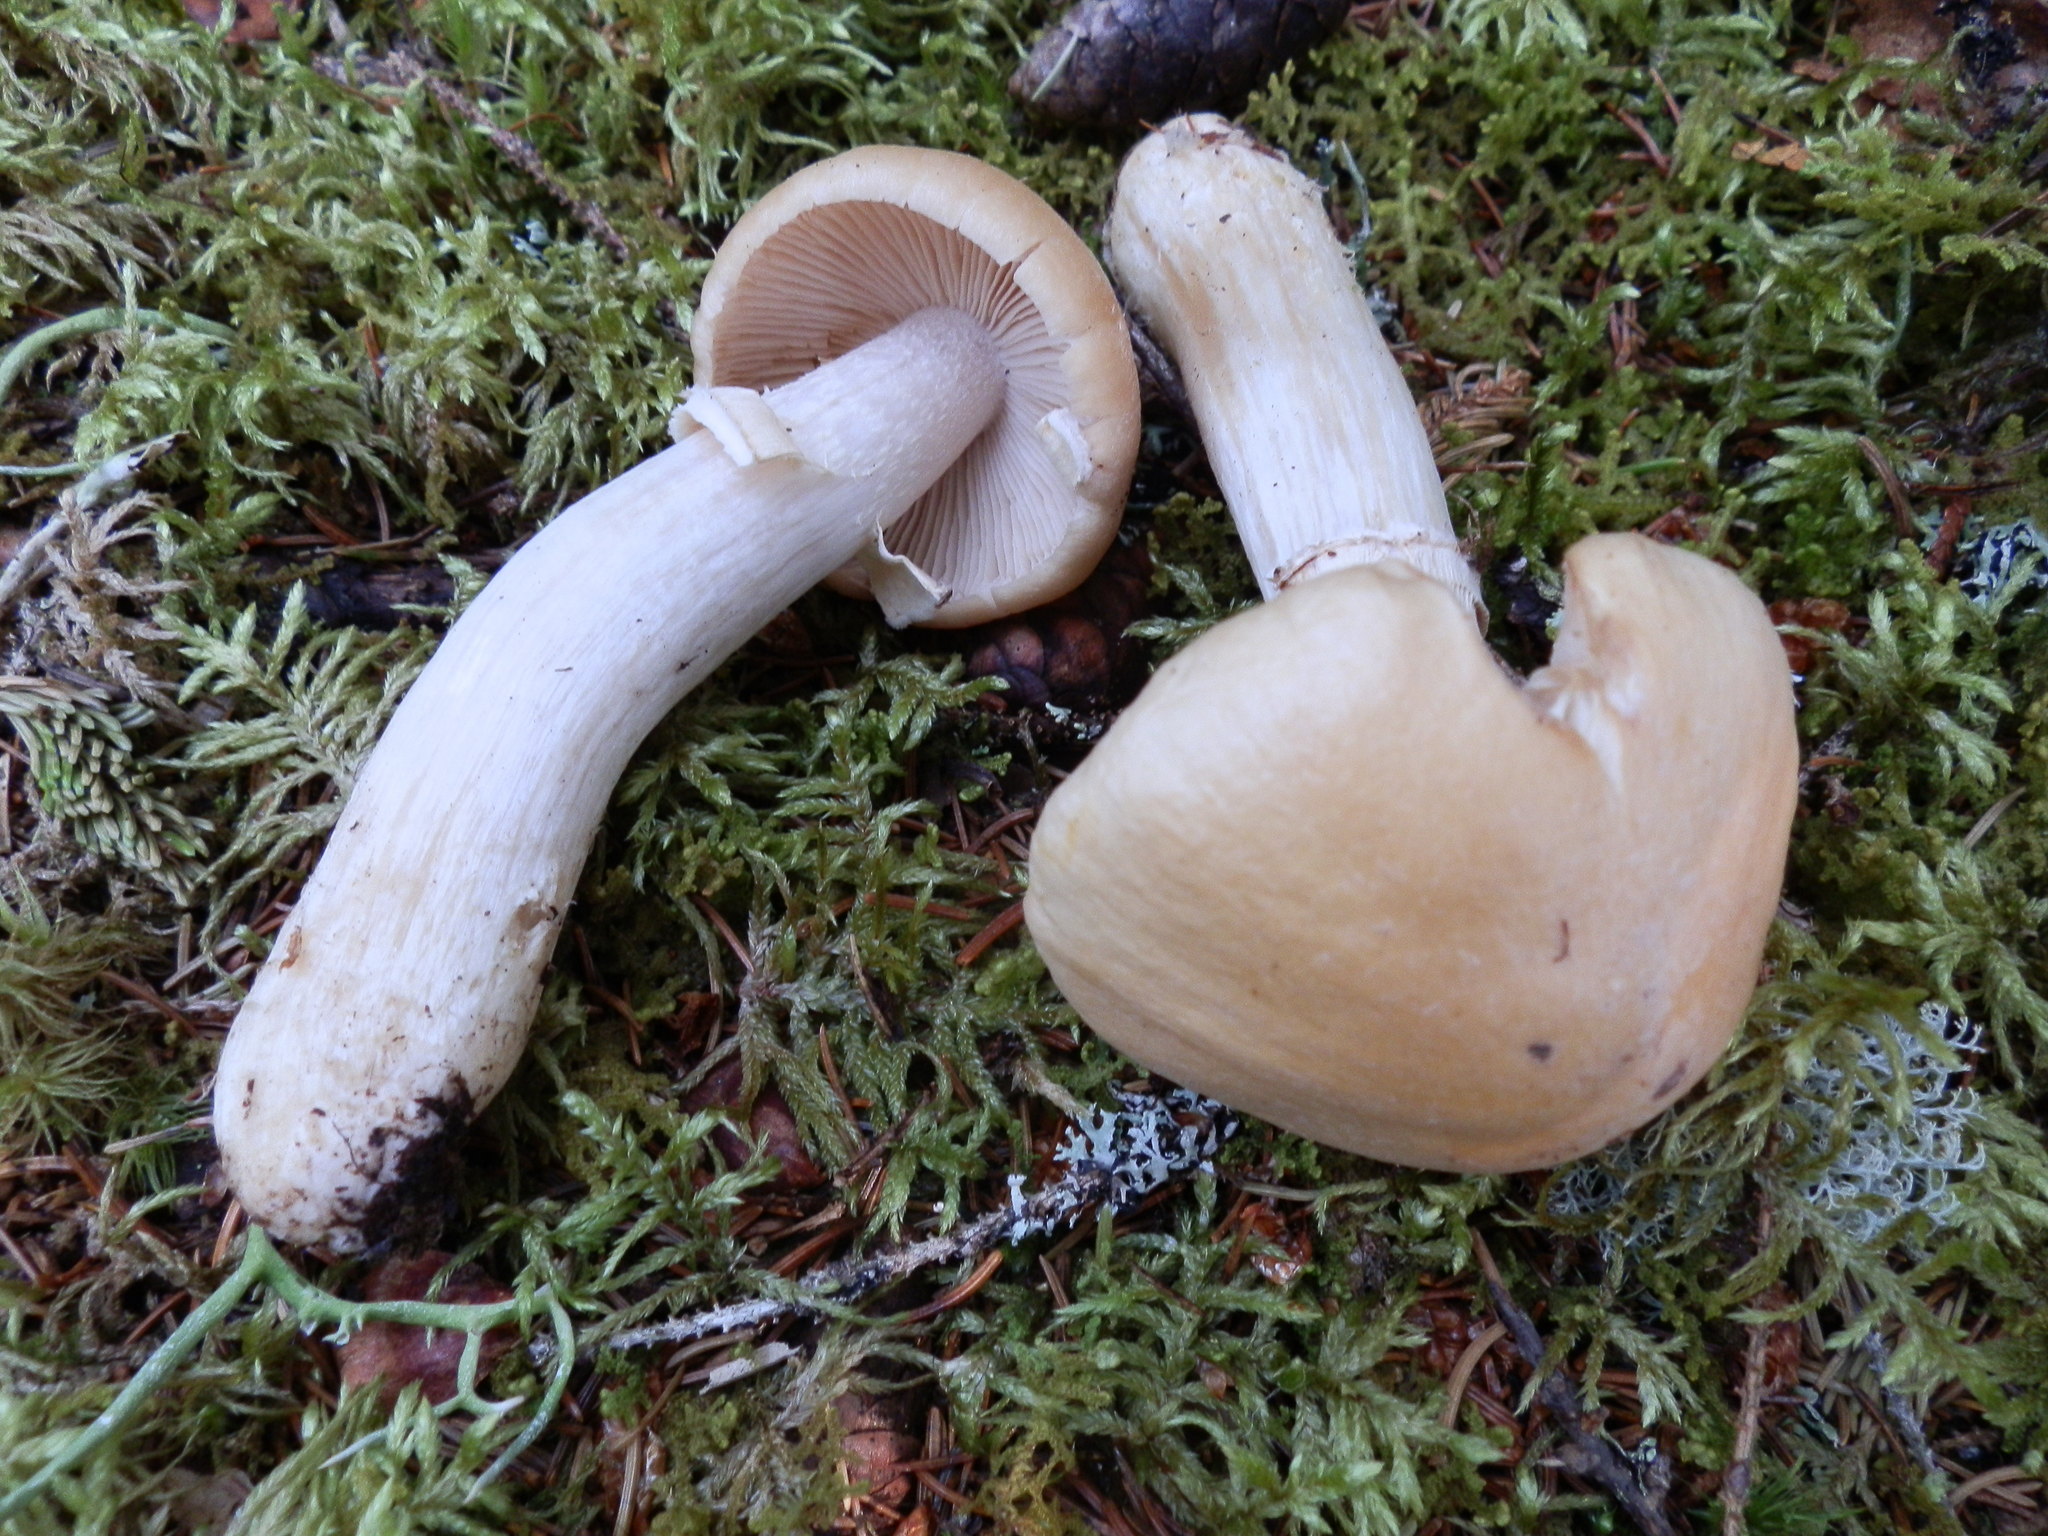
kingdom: Fungi
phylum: Basidiomycota
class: Agaricomycetes
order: Agaricales
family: Cortinariaceae
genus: Cortinarius
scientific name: Cortinarius caperatus
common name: The gypsy
